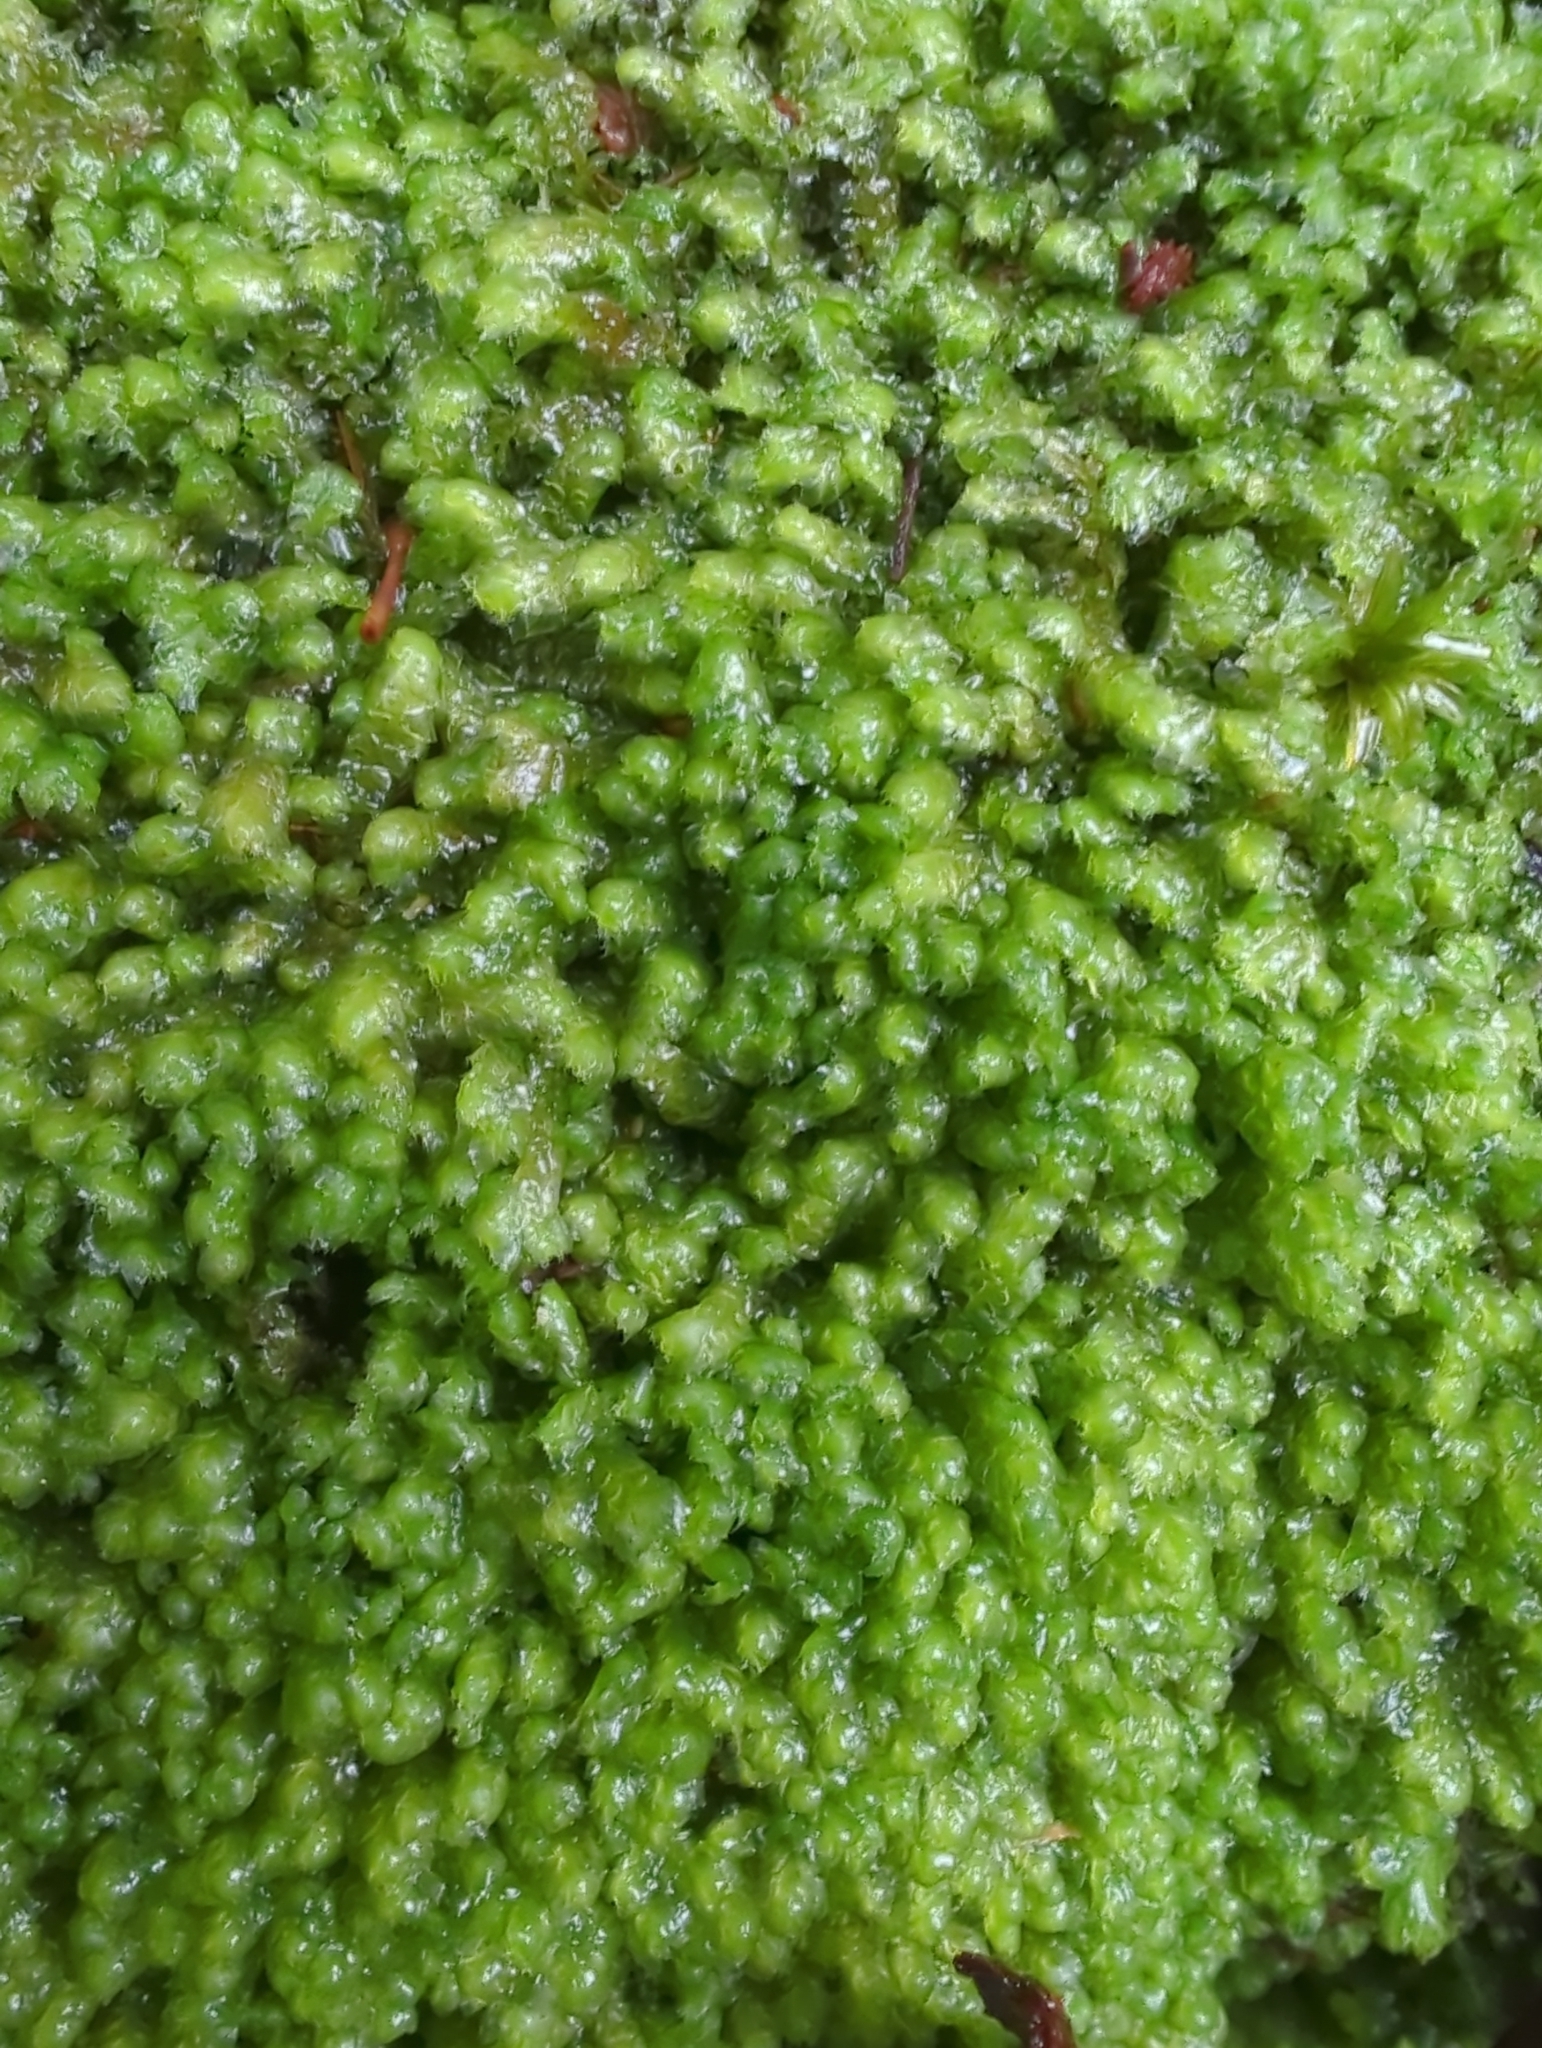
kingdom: Plantae
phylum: Marchantiophyta
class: Jungermanniopsida
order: Jungermanniales
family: Balantiopsidaceae
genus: Balantiopsis
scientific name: Balantiopsis diplophylla
